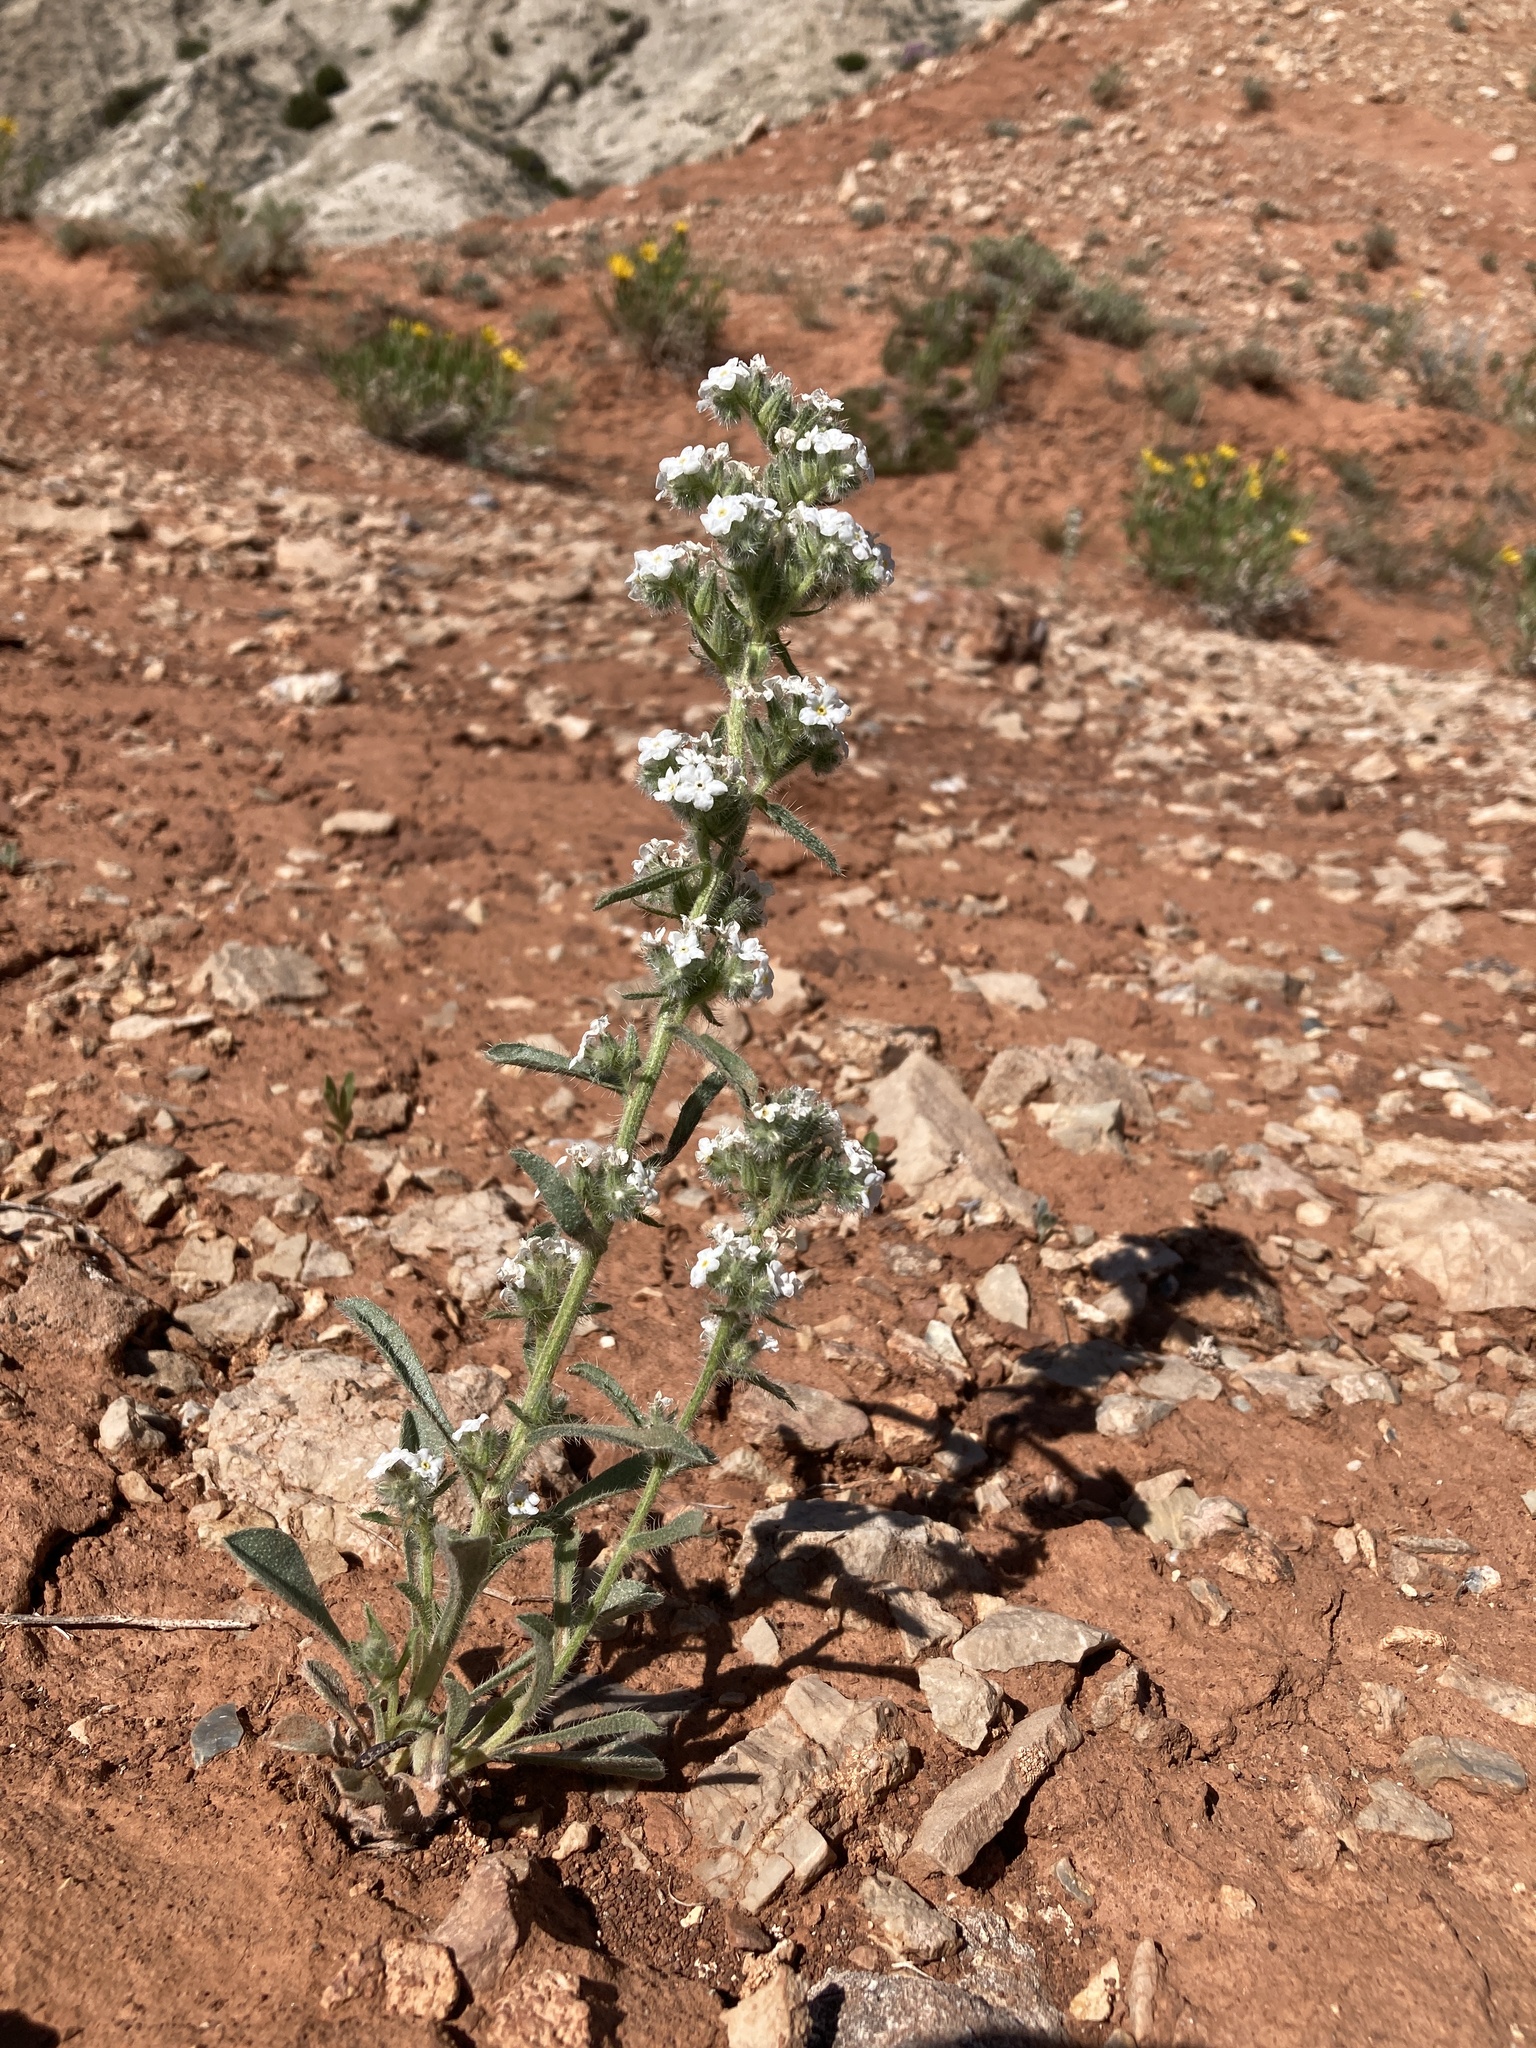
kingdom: Plantae
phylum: Tracheophyta
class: Magnoliopsida
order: Boraginales
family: Boraginaceae
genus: Oreocarya
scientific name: Oreocarya glomerata
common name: Macoun's cryptantha
